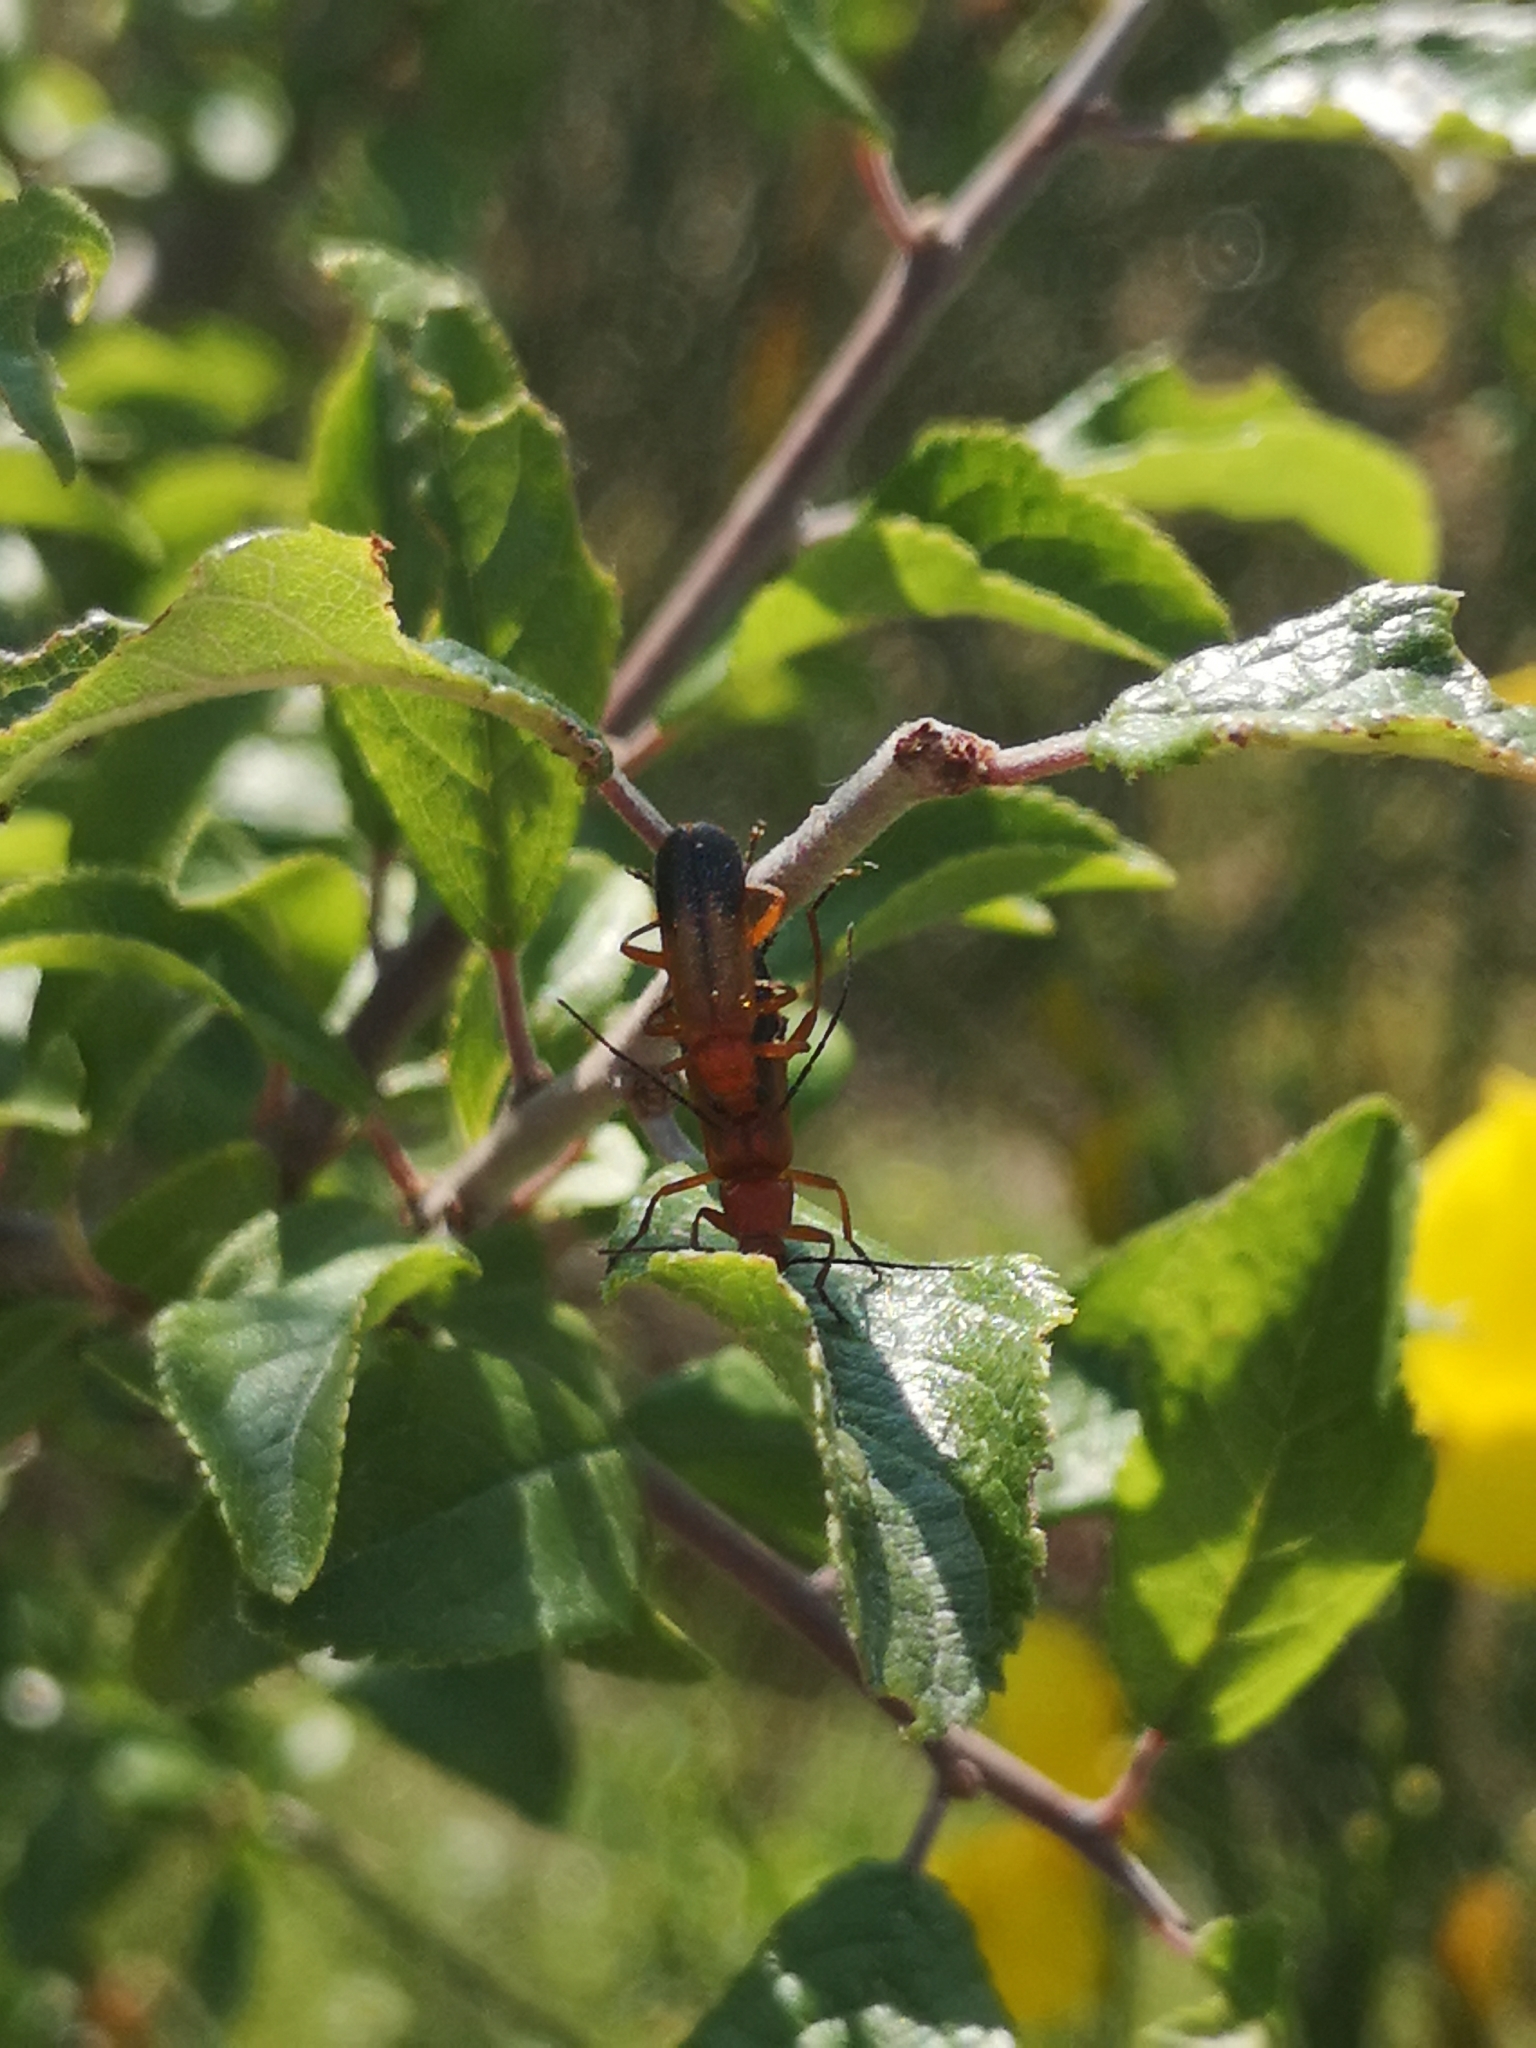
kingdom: Animalia
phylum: Arthropoda
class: Insecta
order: Coleoptera
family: Cantharidae
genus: Rhagonycha
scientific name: Rhagonycha fulva
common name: Common red soldier beetle
